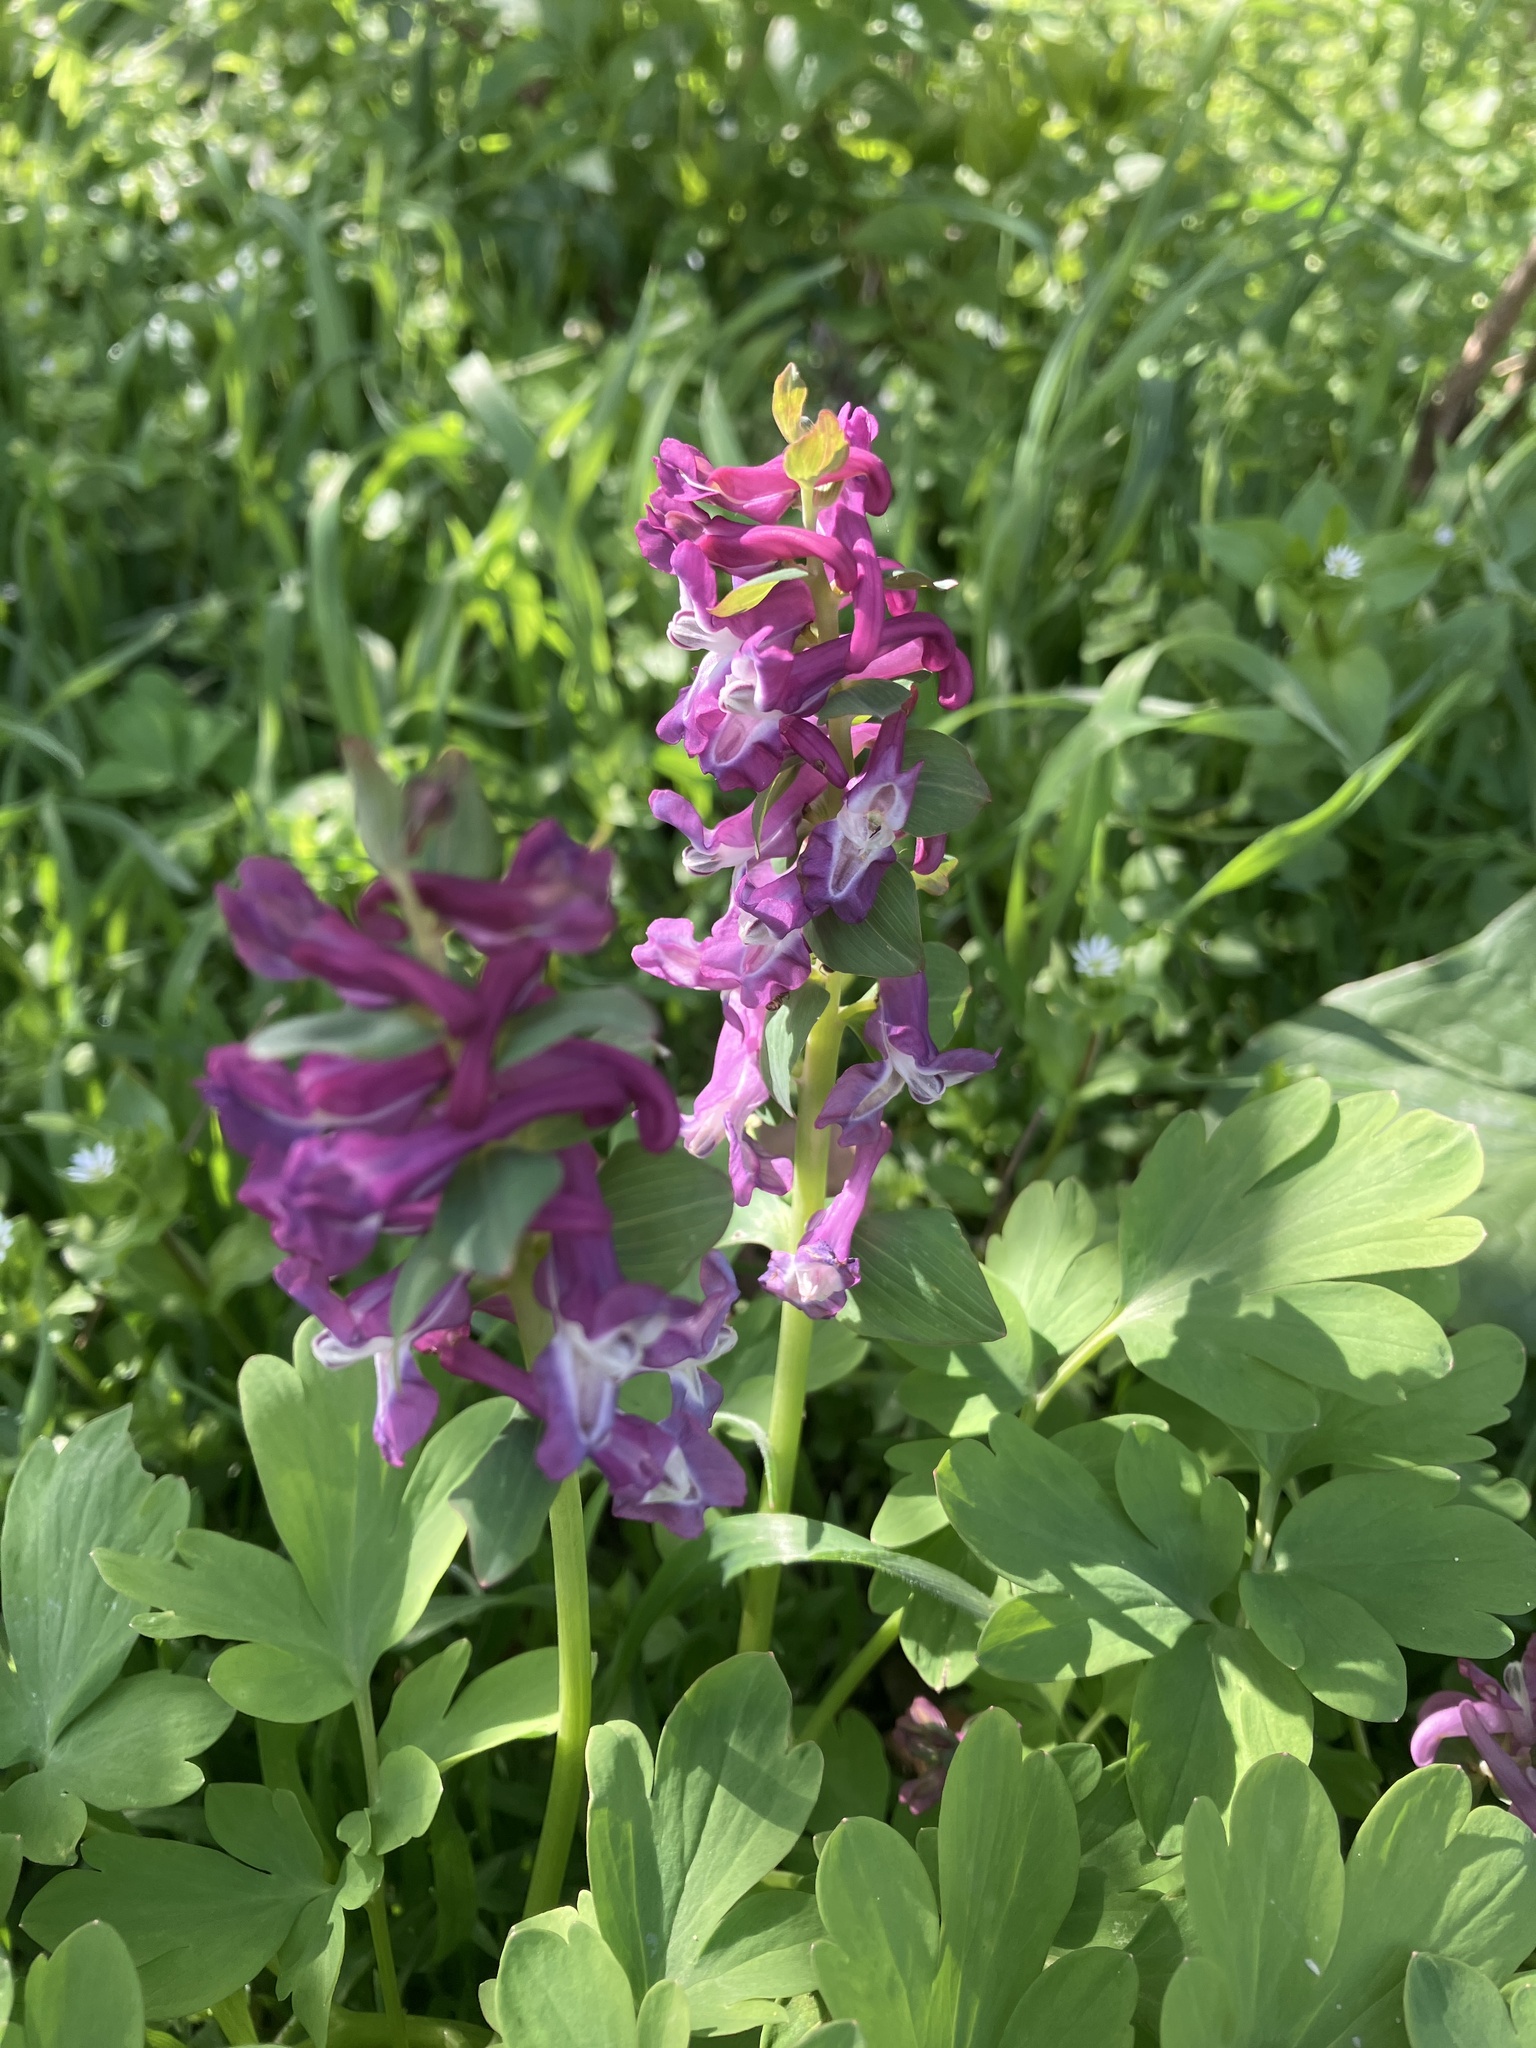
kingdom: Plantae
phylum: Tracheophyta
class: Magnoliopsida
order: Ranunculales
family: Papaveraceae
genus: Corydalis
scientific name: Corydalis cava
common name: Hollowroot
